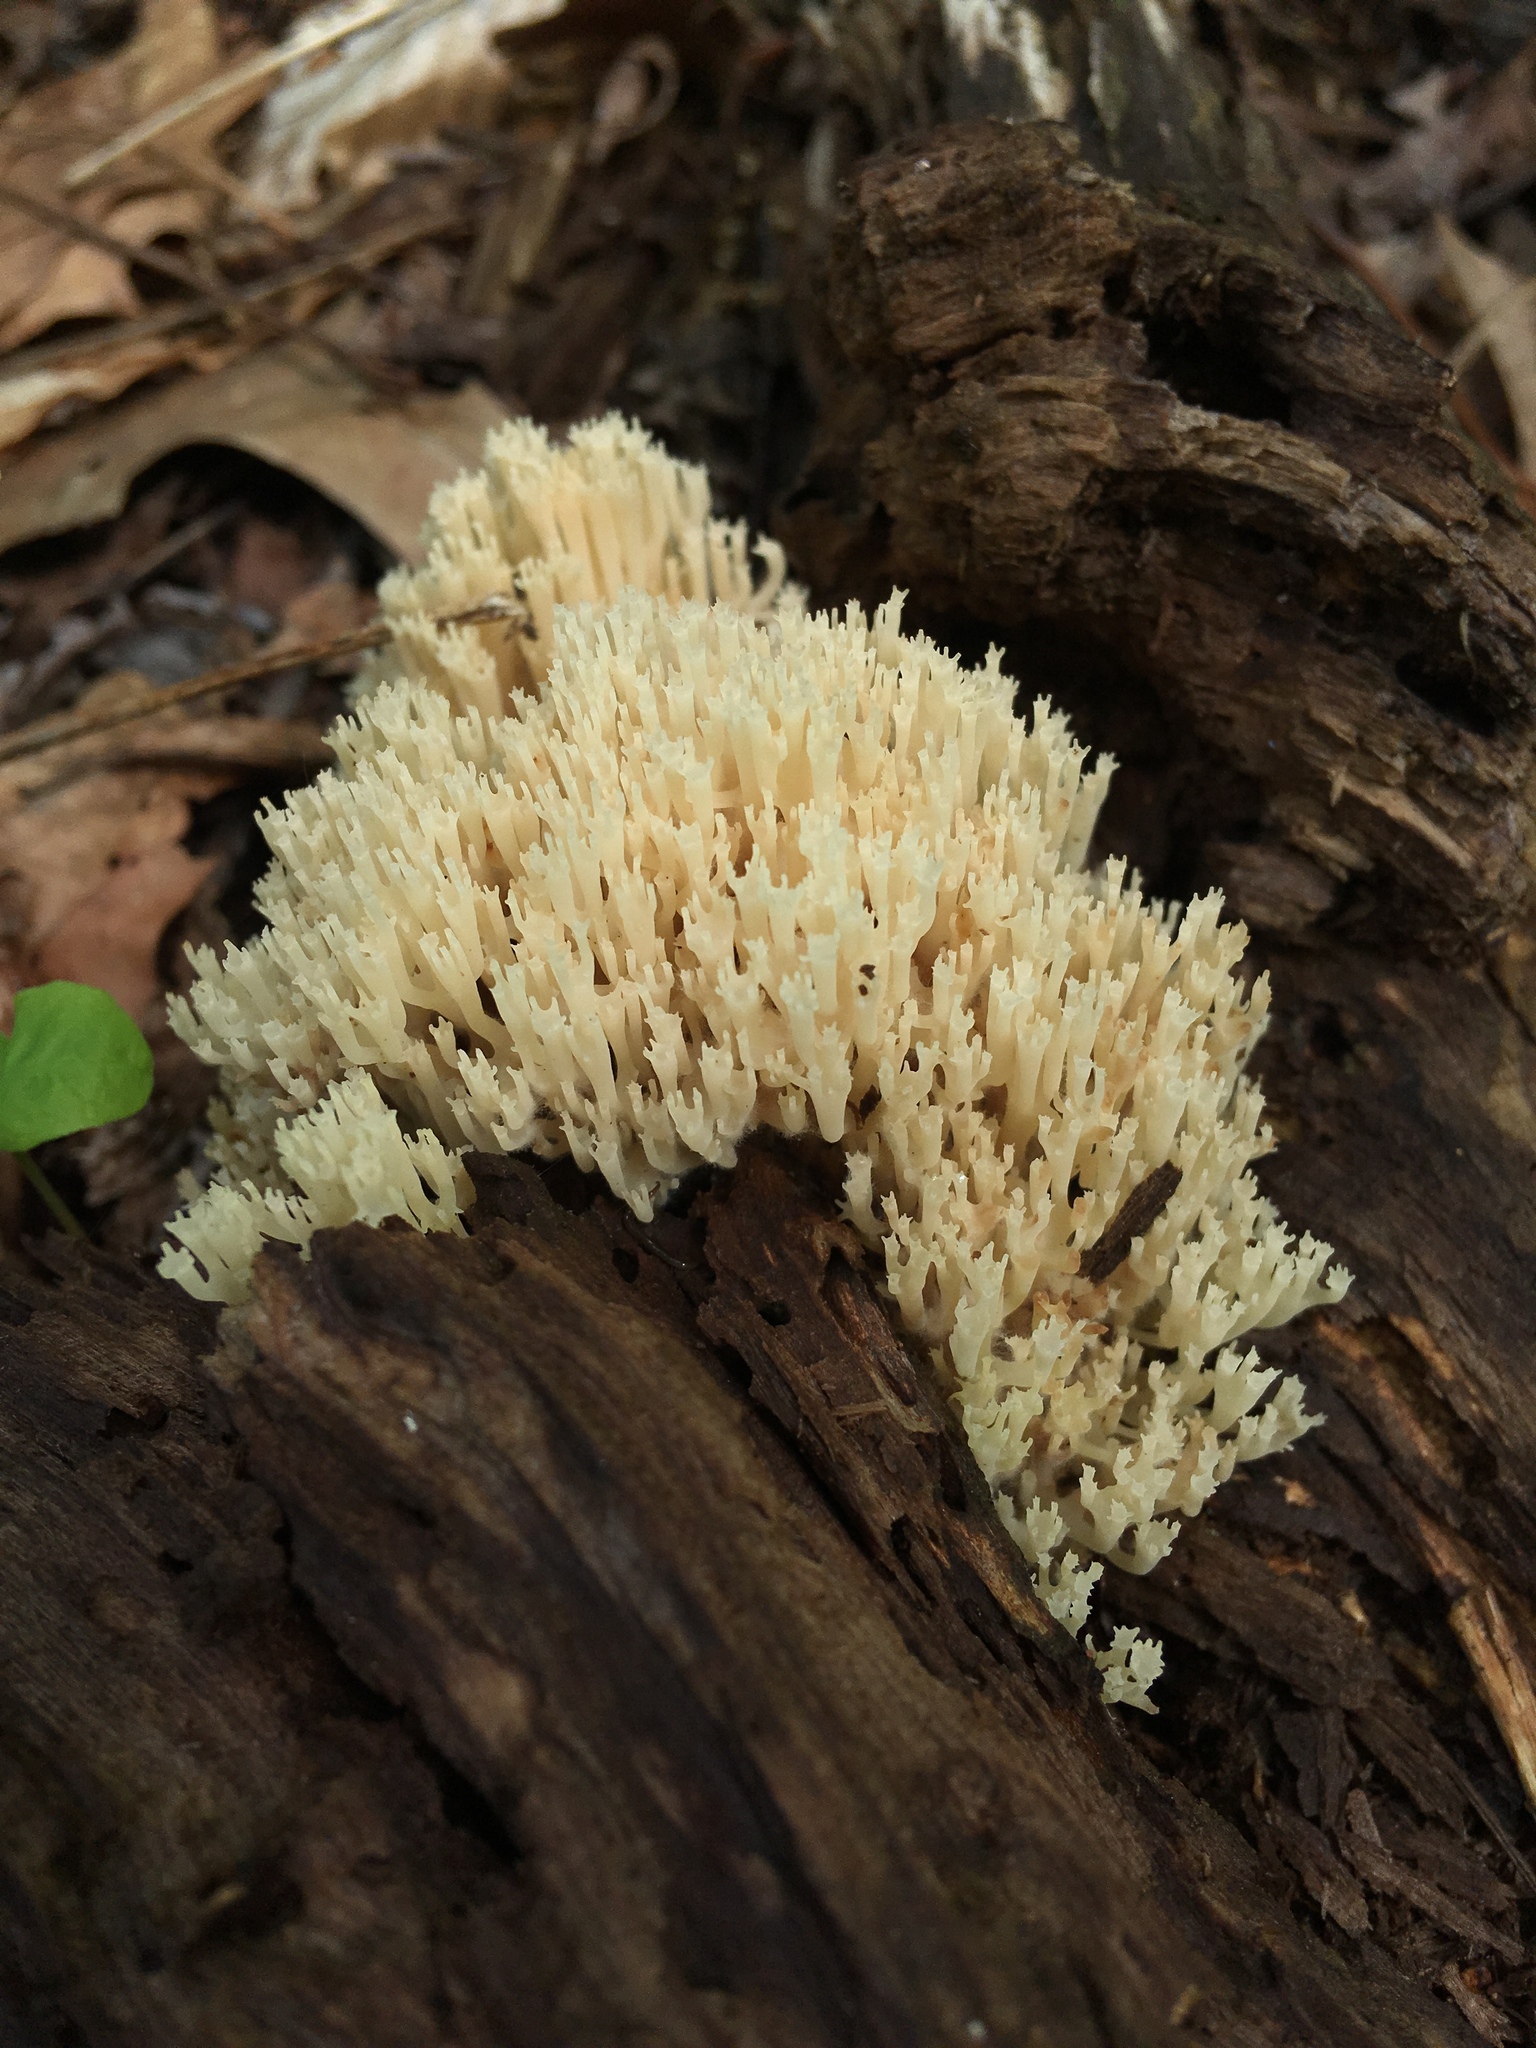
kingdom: Fungi
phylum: Basidiomycota
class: Agaricomycetes
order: Russulales
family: Auriscalpiaceae
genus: Artomyces
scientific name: Artomyces pyxidatus
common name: Crown-tipped coral fungus
